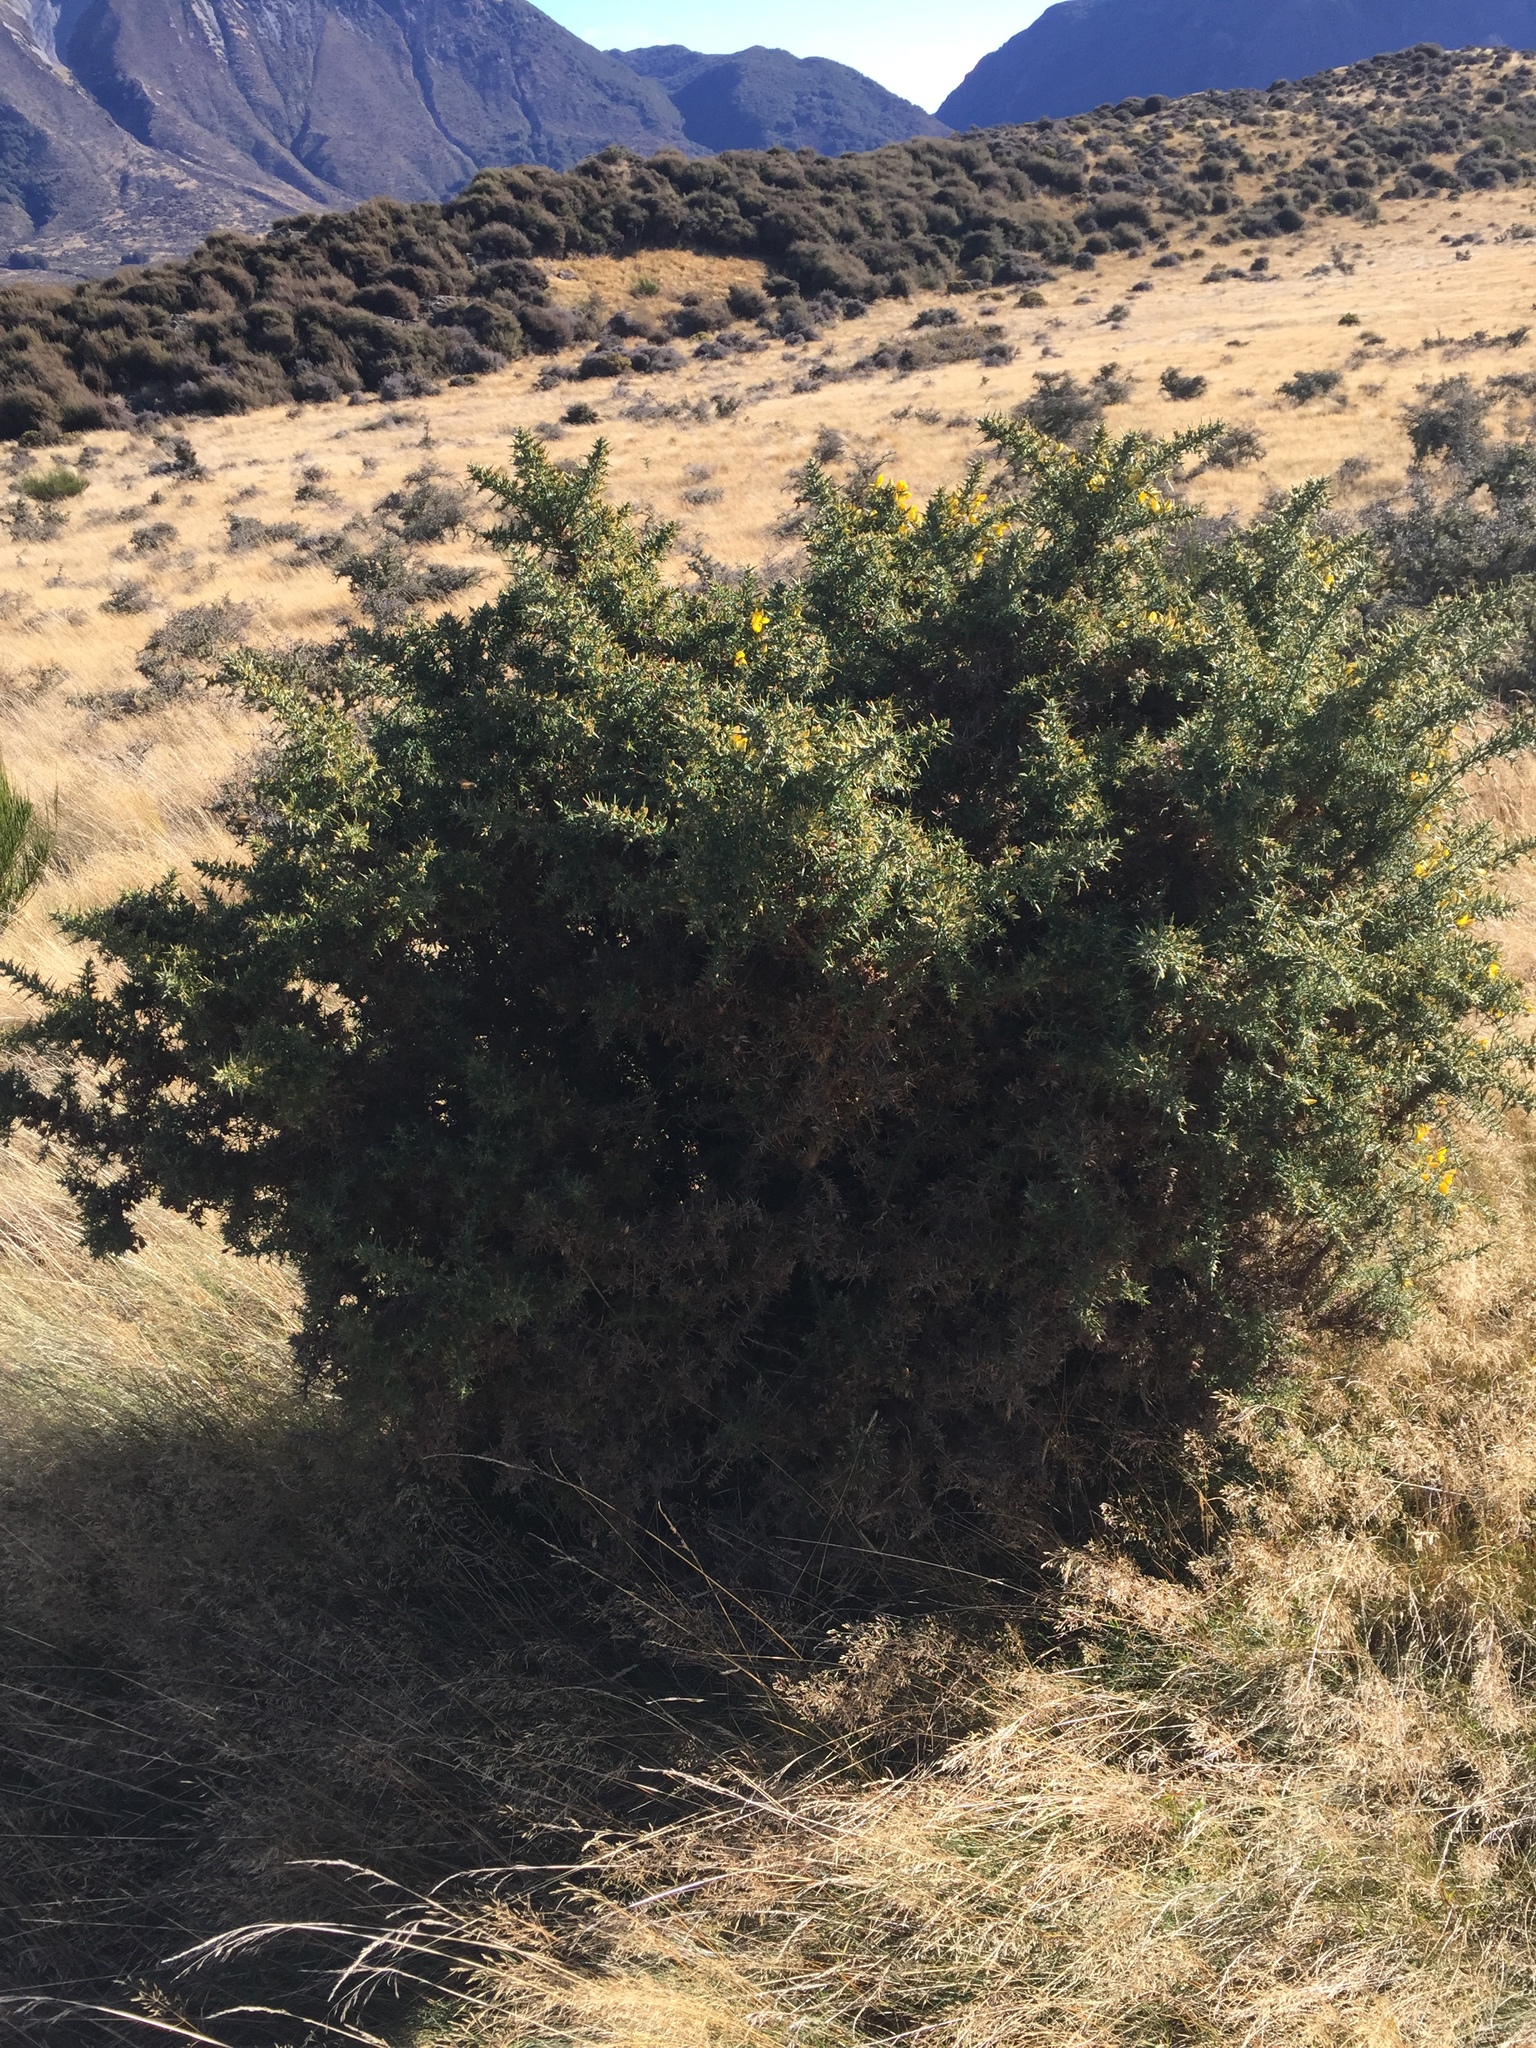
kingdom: Plantae
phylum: Tracheophyta
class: Magnoliopsida
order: Fabales
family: Fabaceae
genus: Ulex
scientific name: Ulex europaeus
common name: Common gorse
